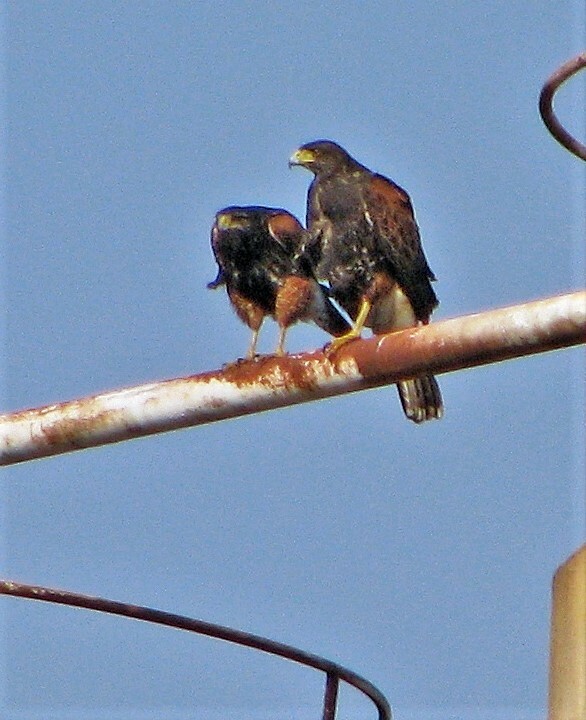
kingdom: Animalia
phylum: Chordata
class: Aves
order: Accipitriformes
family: Accipitridae
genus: Parabuteo
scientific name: Parabuteo unicinctus
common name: Harris's hawk
